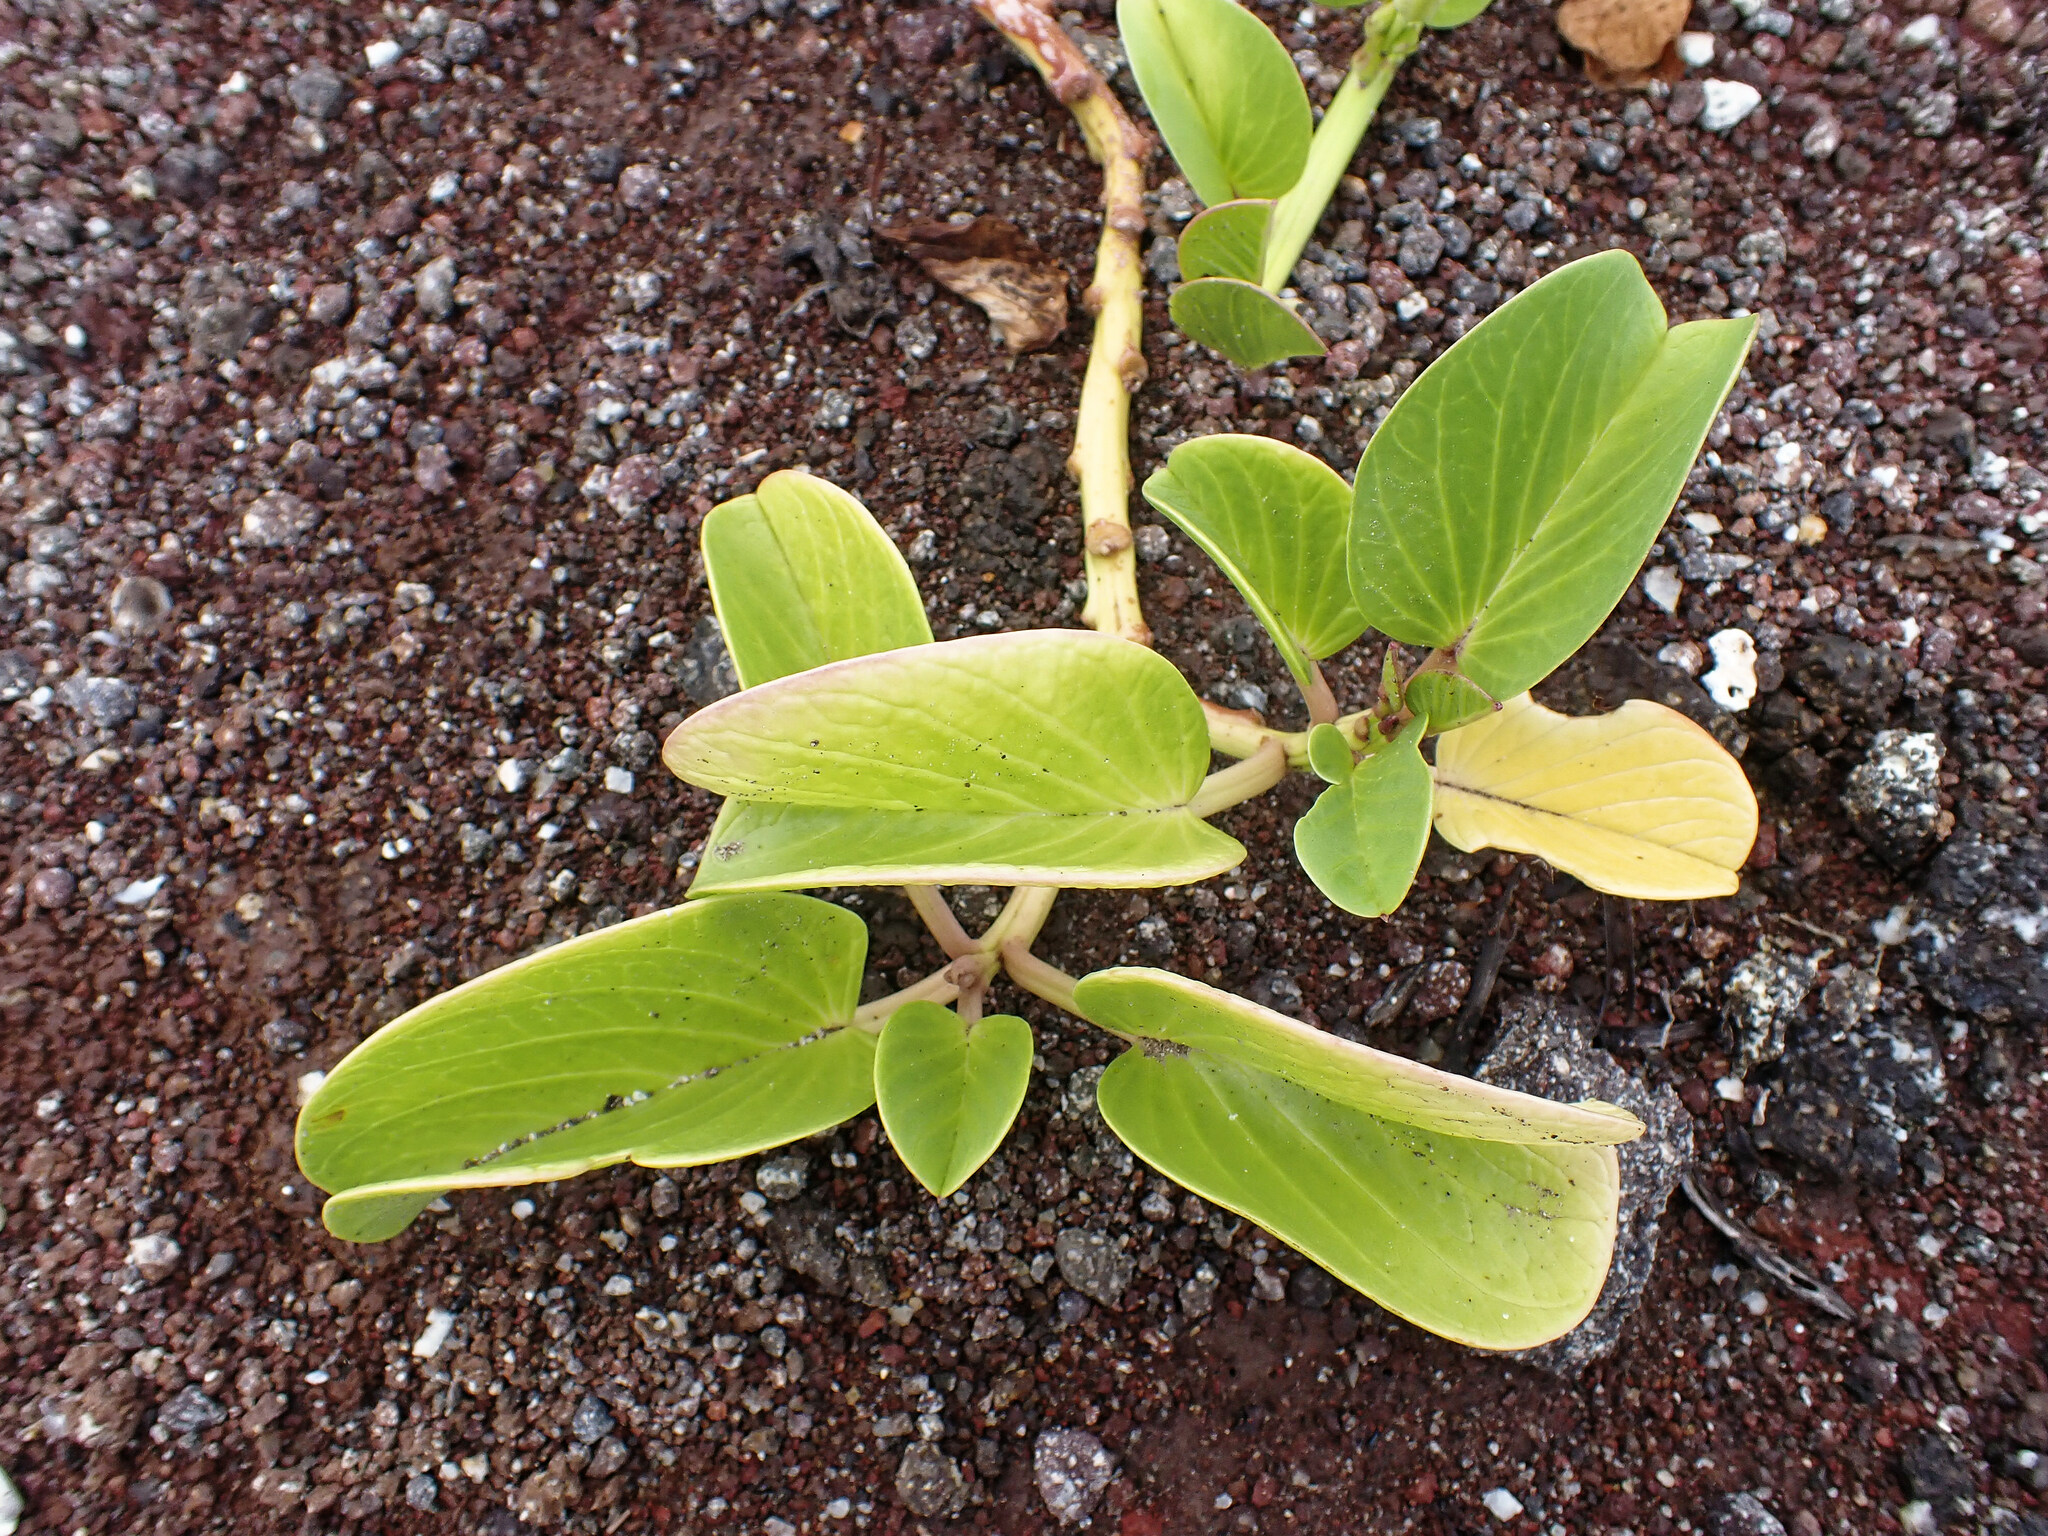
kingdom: Plantae
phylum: Tracheophyta
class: Magnoliopsida
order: Solanales
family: Convolvulaceae
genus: Ipomoea
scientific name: Ipomoea pes-caprae
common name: Beach morning glory
